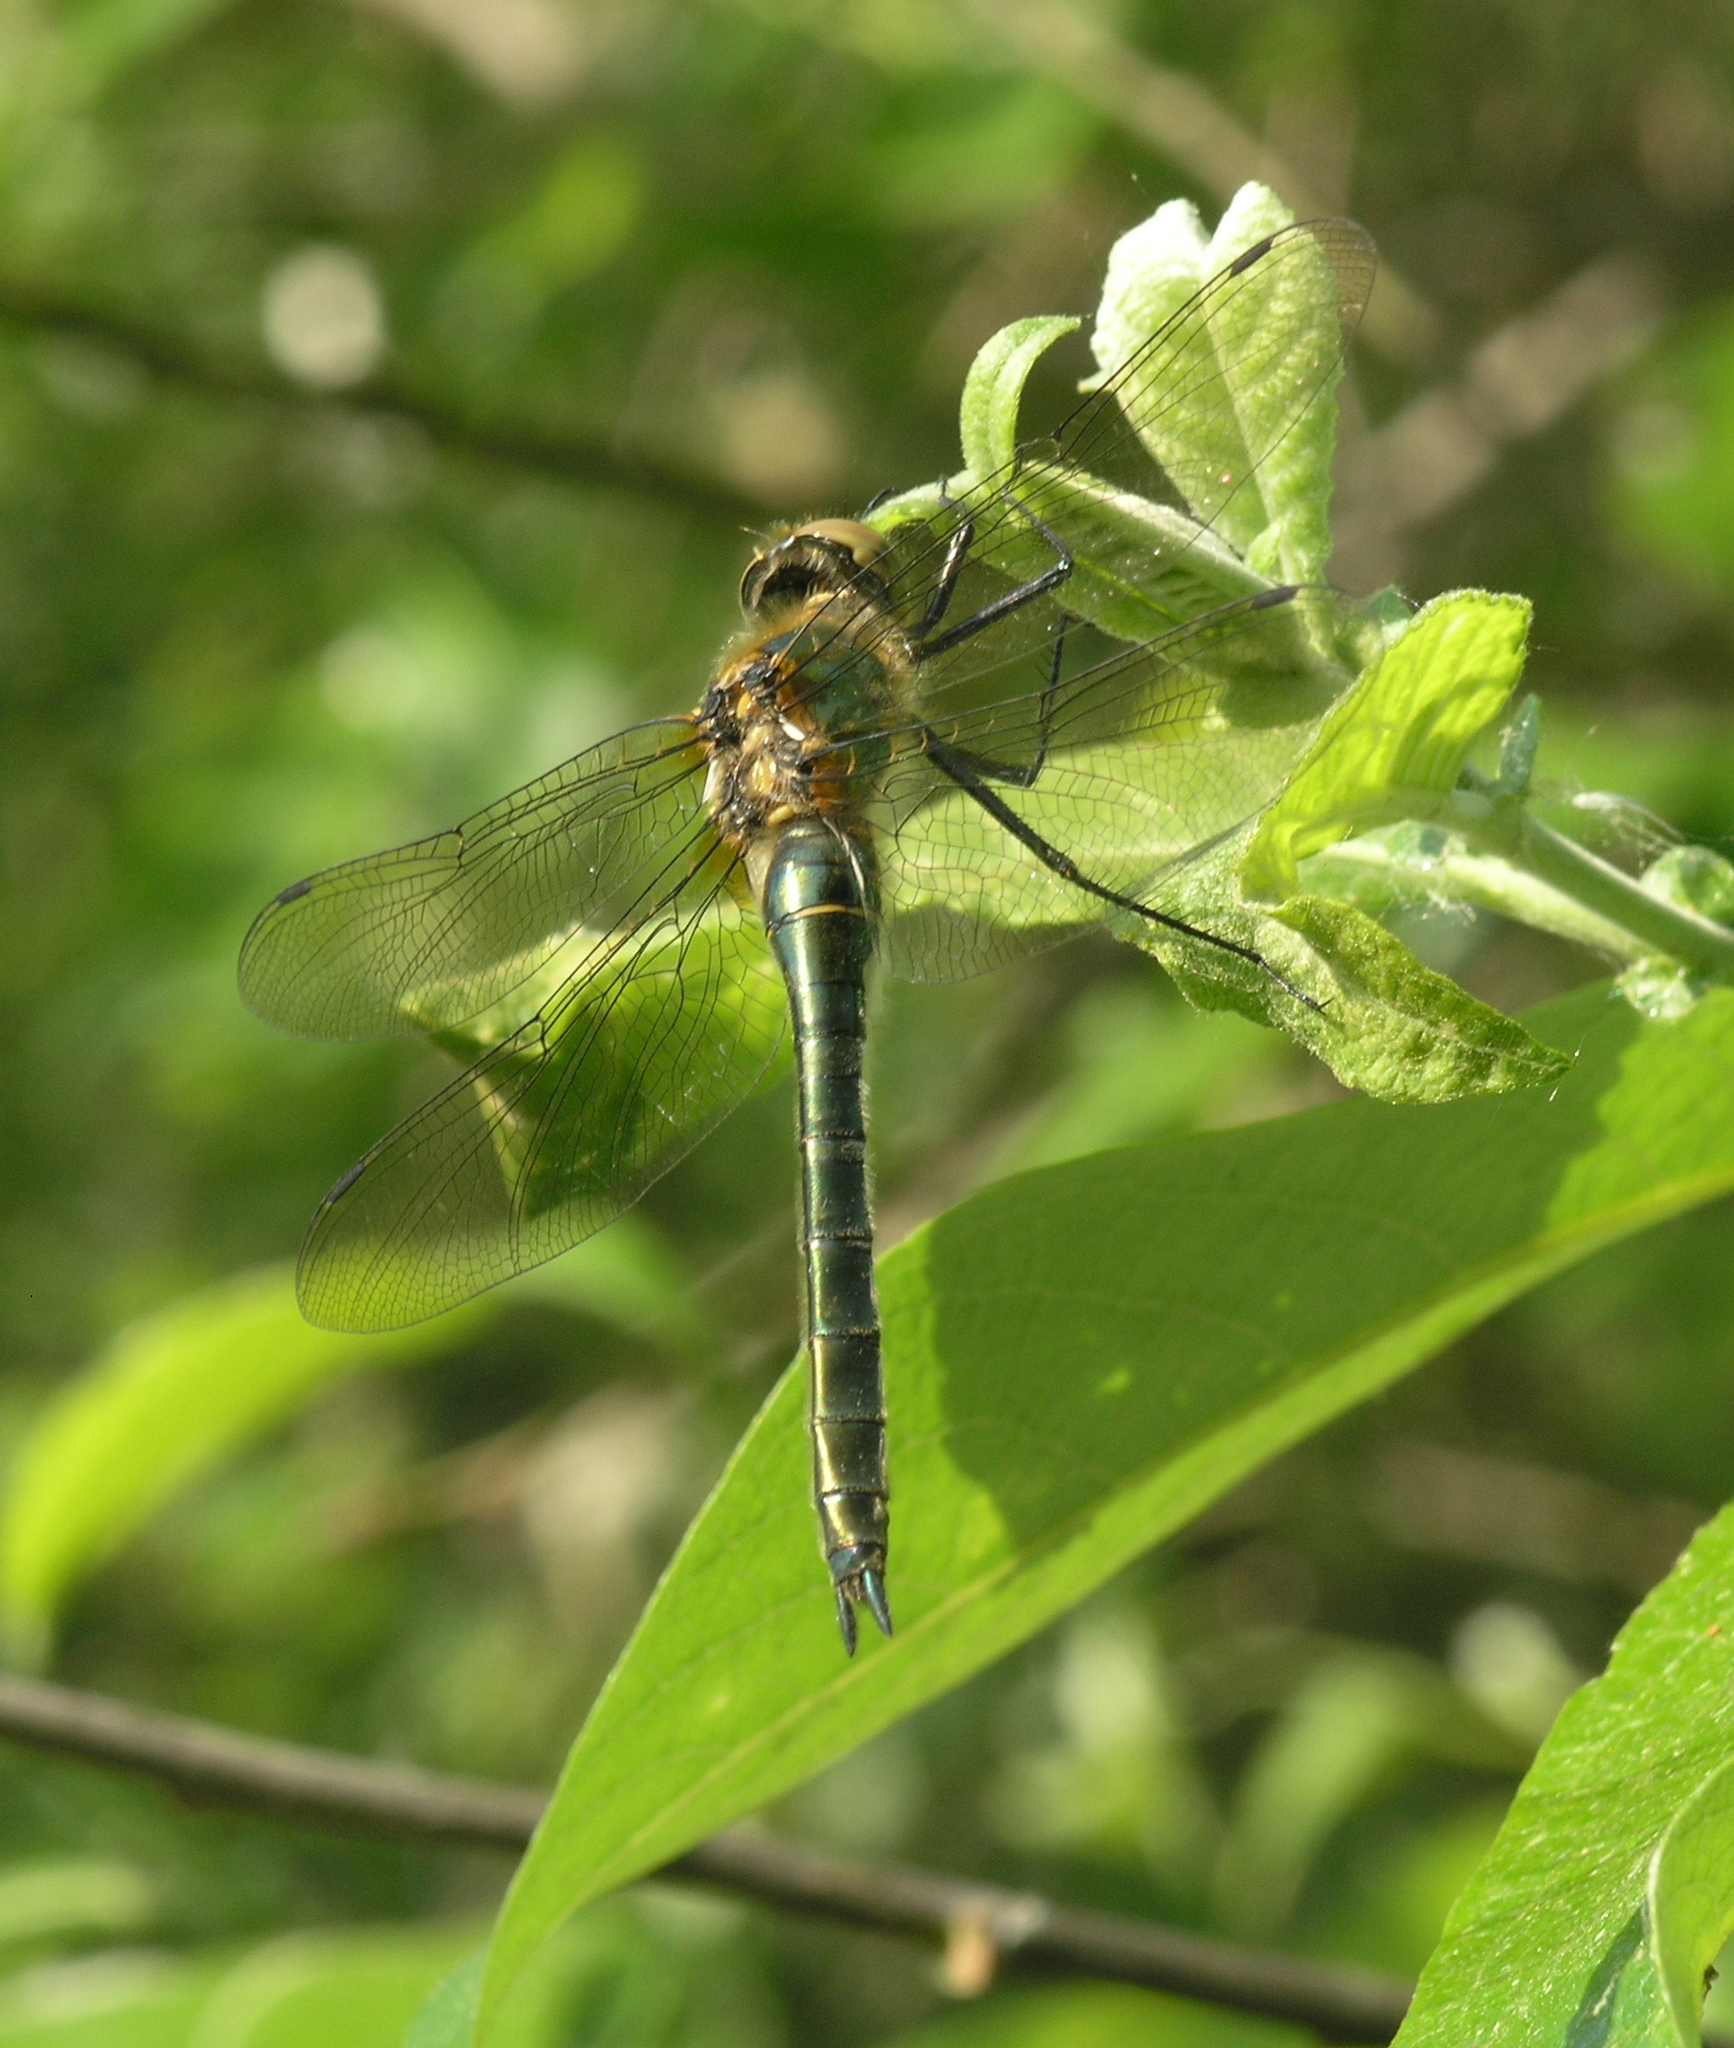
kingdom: Animalia
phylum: Arthropoda
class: Insecta
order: Odonata
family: Corduliidae
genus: Cordulia
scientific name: Cordulia aenea
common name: Downy emerald
